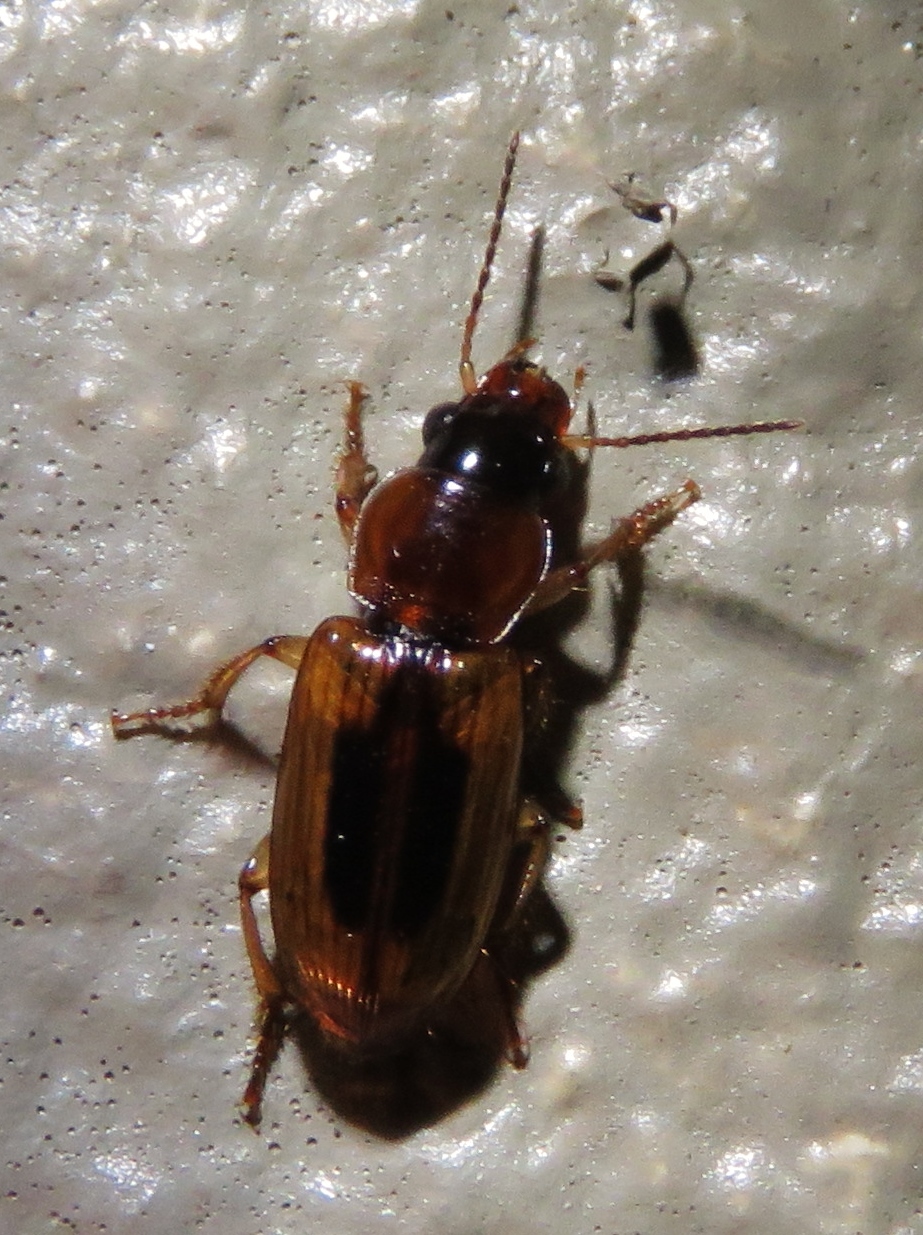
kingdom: Animalia
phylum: Arthropoda
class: Insecta
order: Coleoptera
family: Carabidae
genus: Stenolophus
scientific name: Stenolophus lecontei
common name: Leconte's seedcorn beetle
